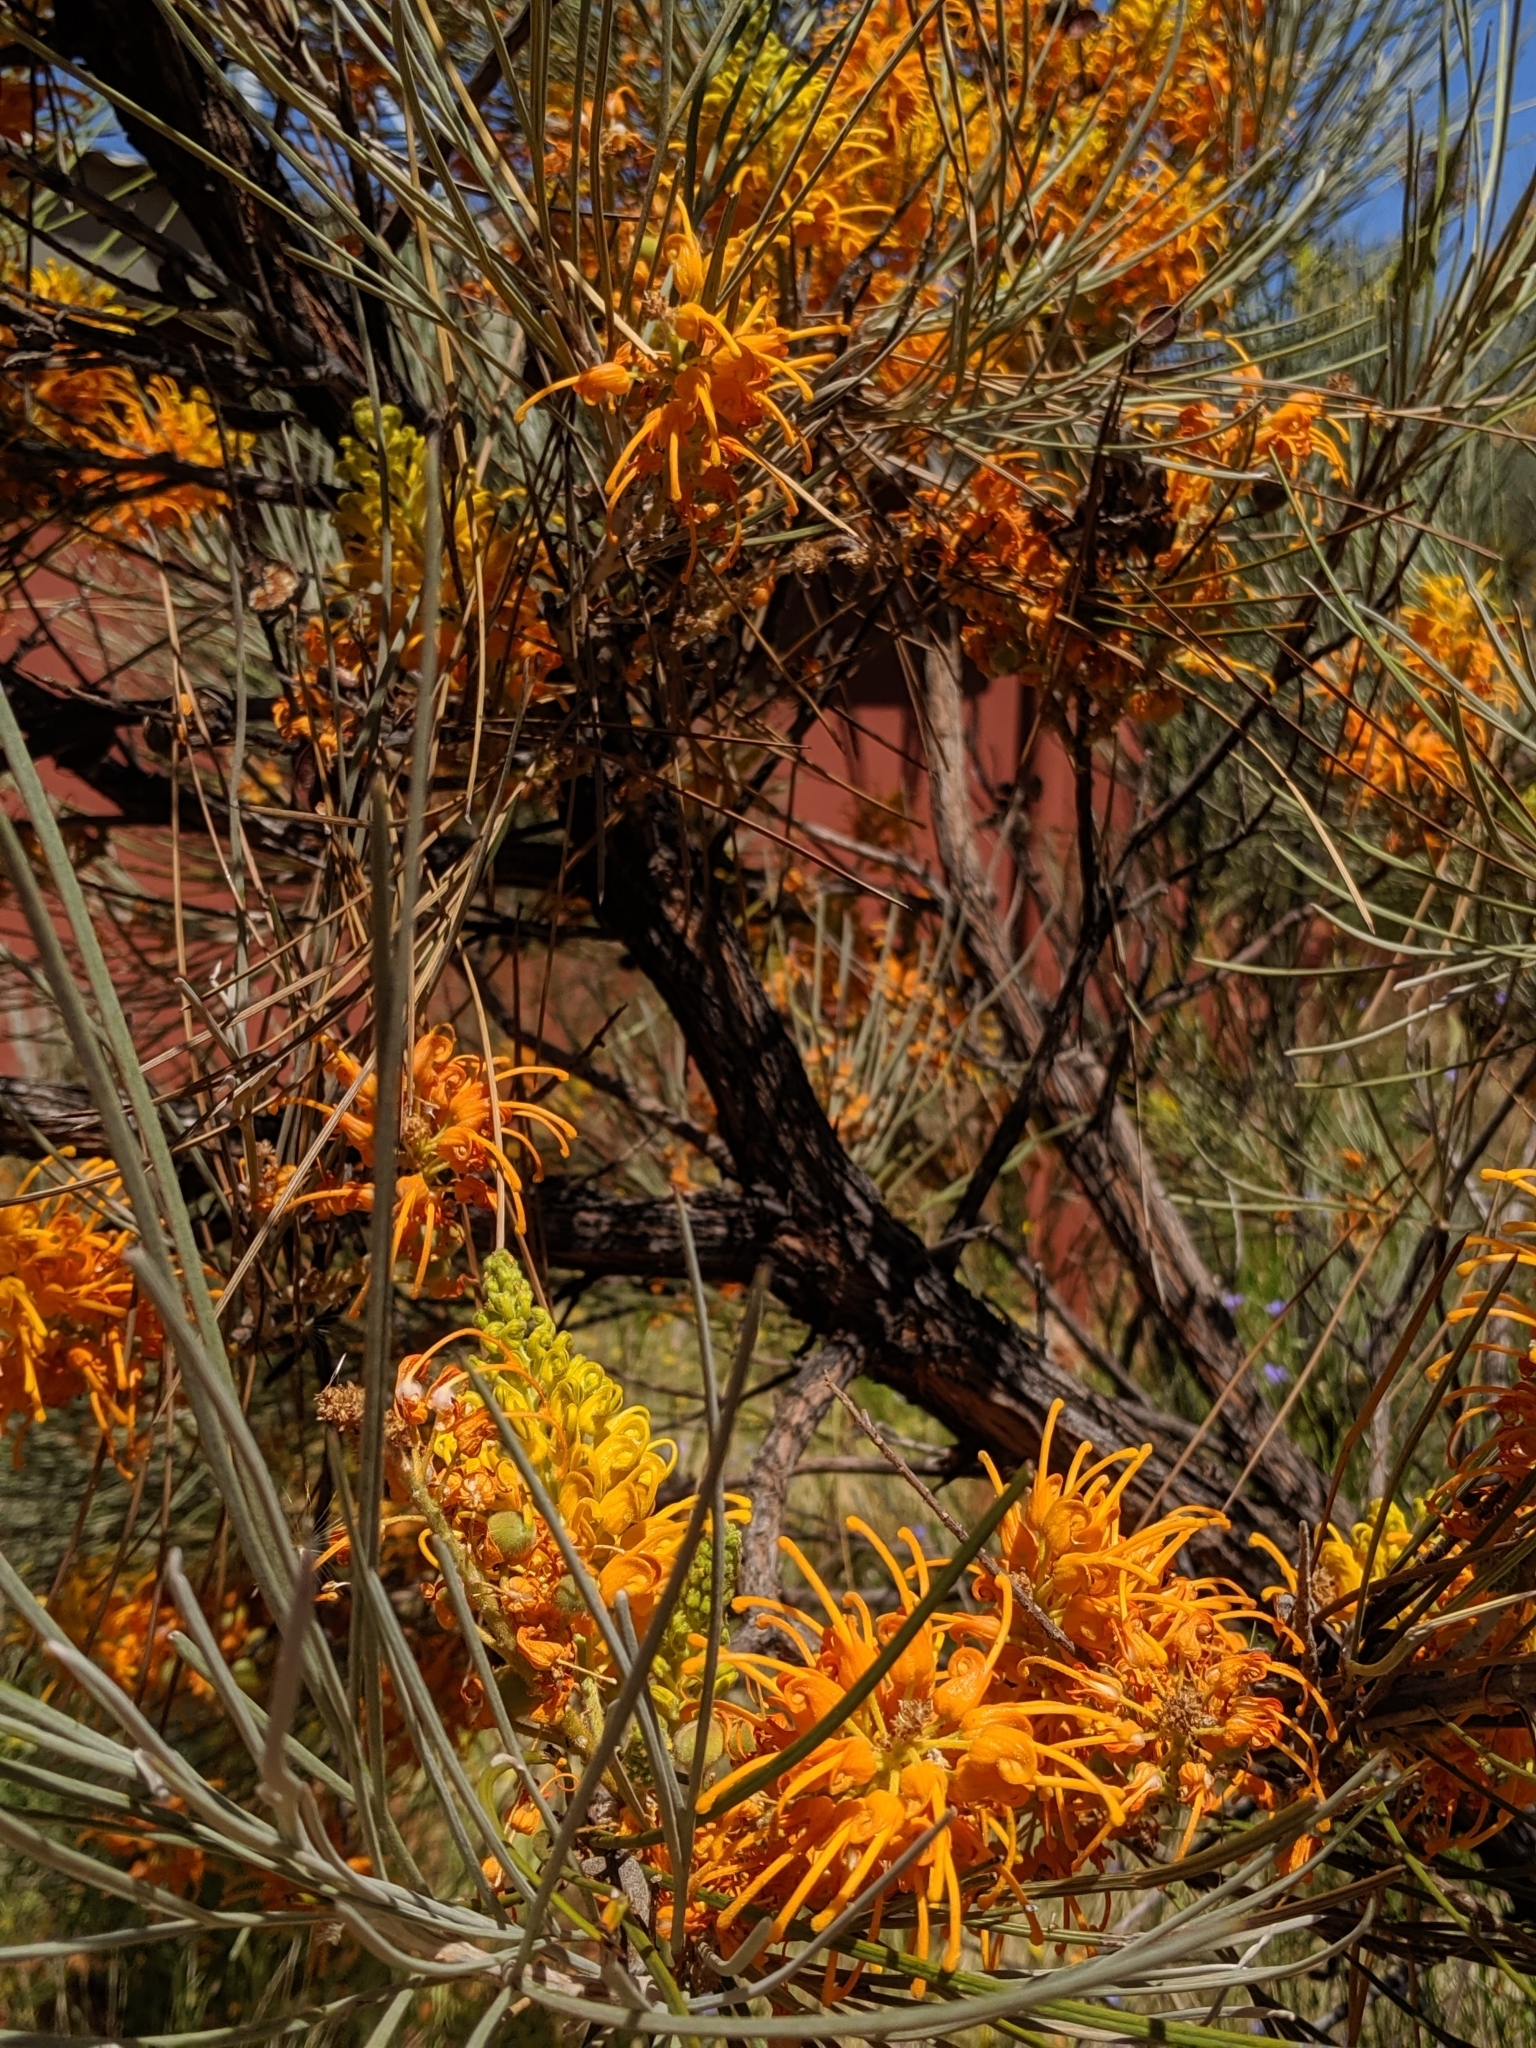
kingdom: Plantae
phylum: Tracheophyta
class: Magnoliopsida
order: Proteales
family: Proteaceae
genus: Grevillea
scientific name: Grevillea juncifolia
